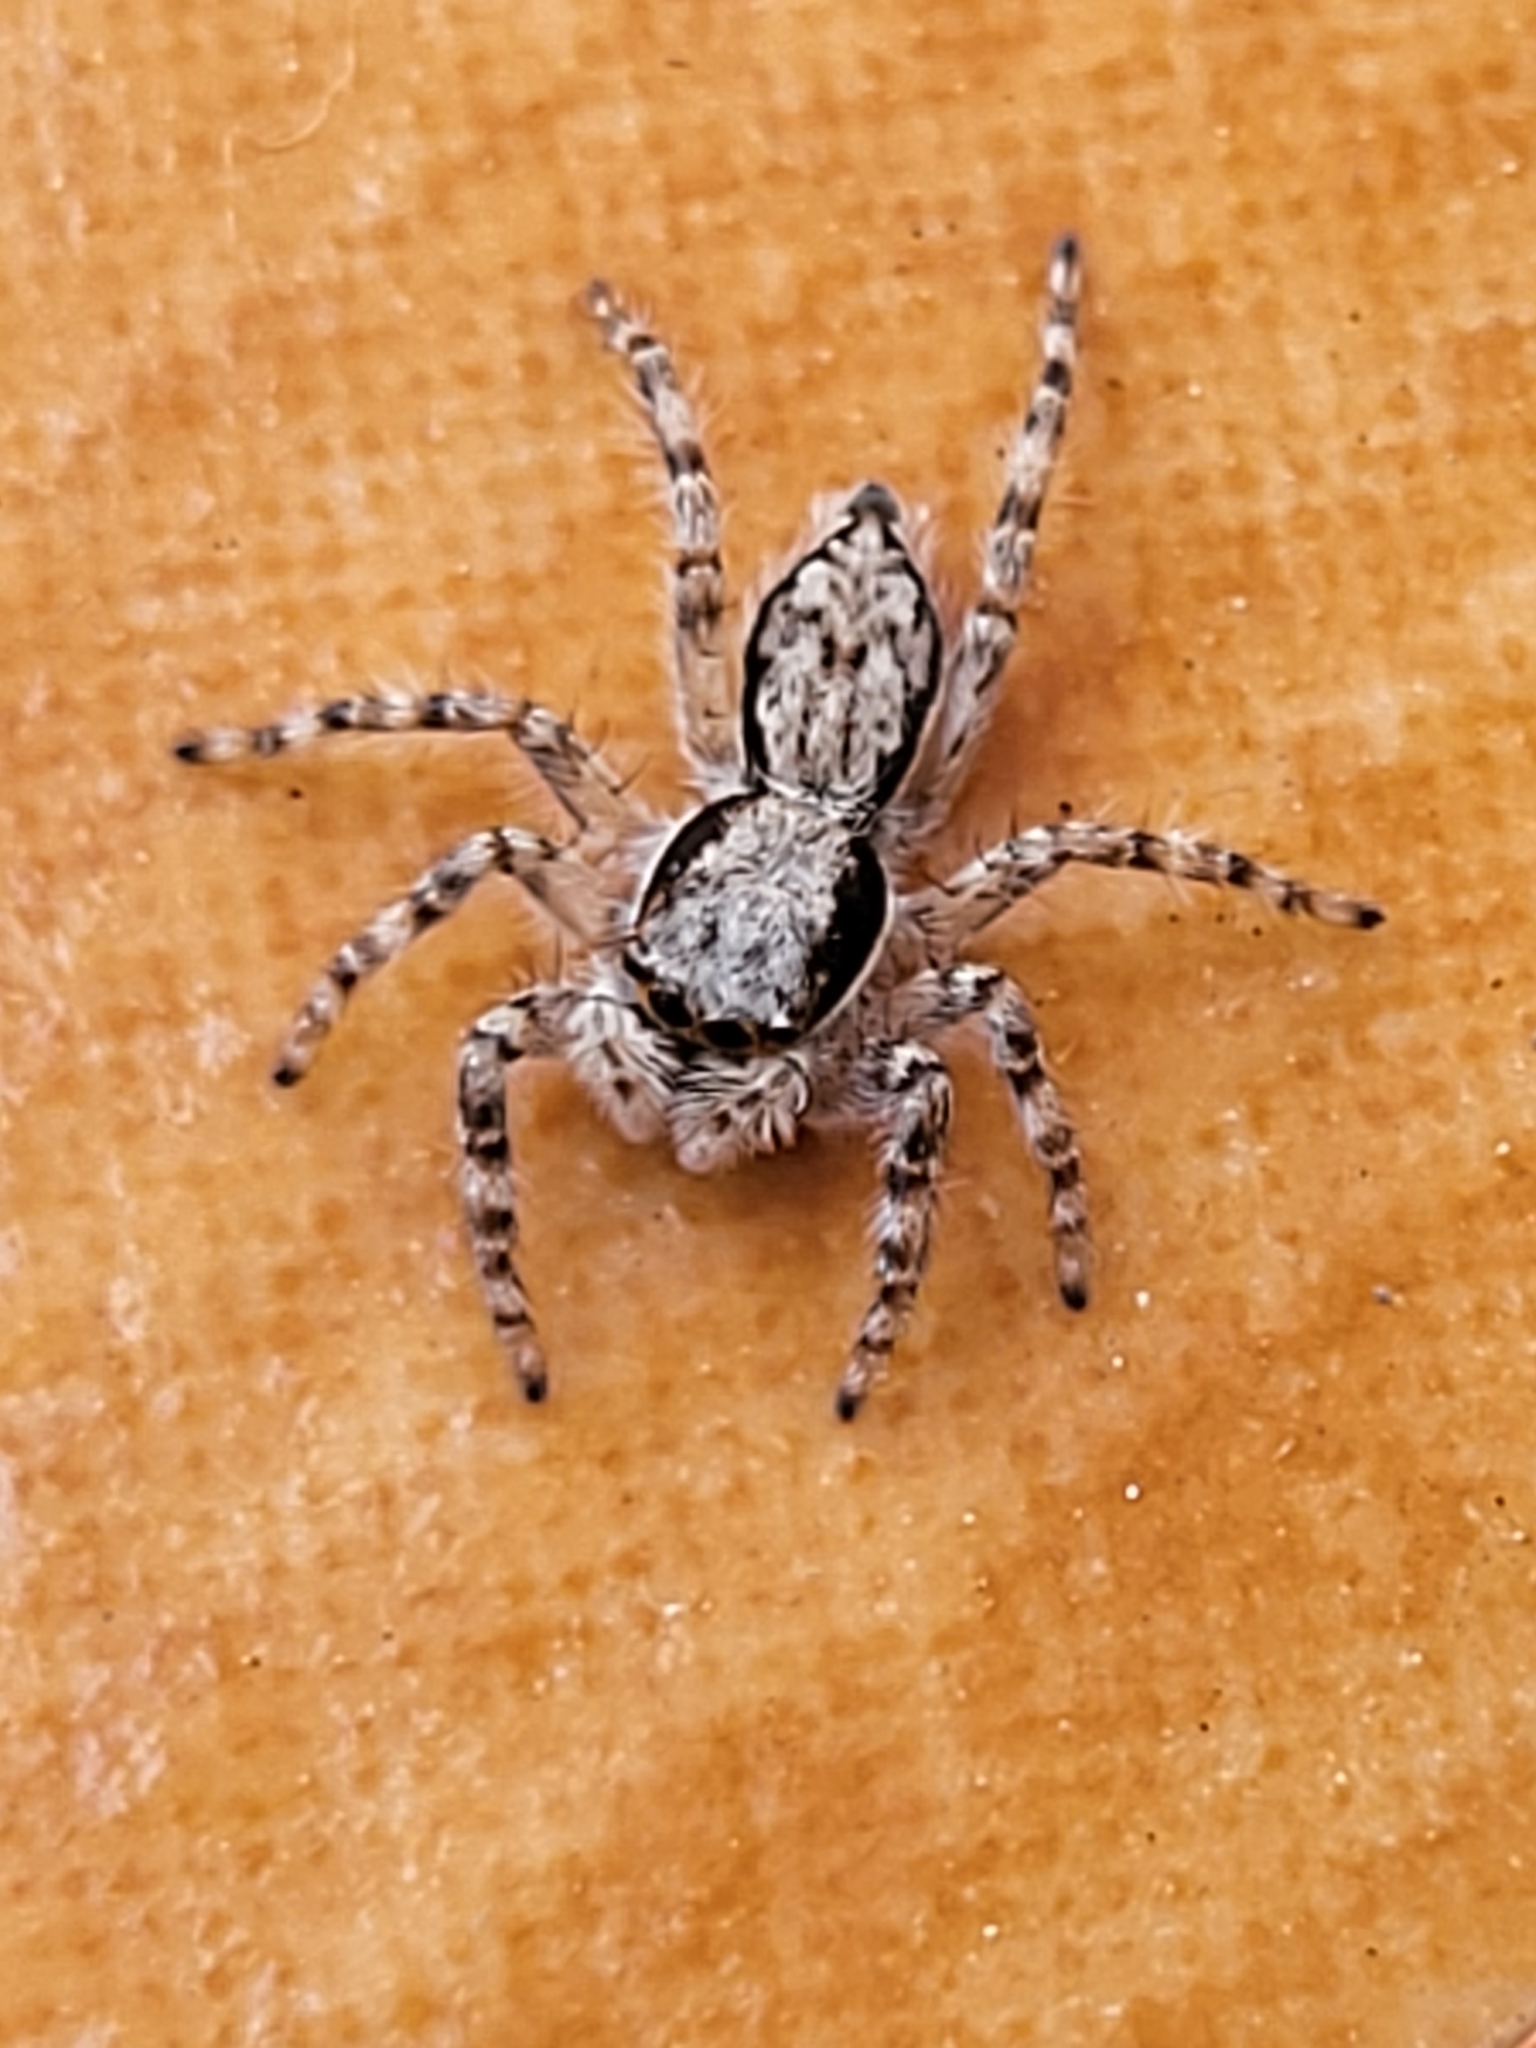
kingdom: Animalia
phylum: Arthropoda
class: Arachnida
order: Araneae
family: Salticidae
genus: Menemerus
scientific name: Menemerus bivittatus
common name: Gray wall jumper
